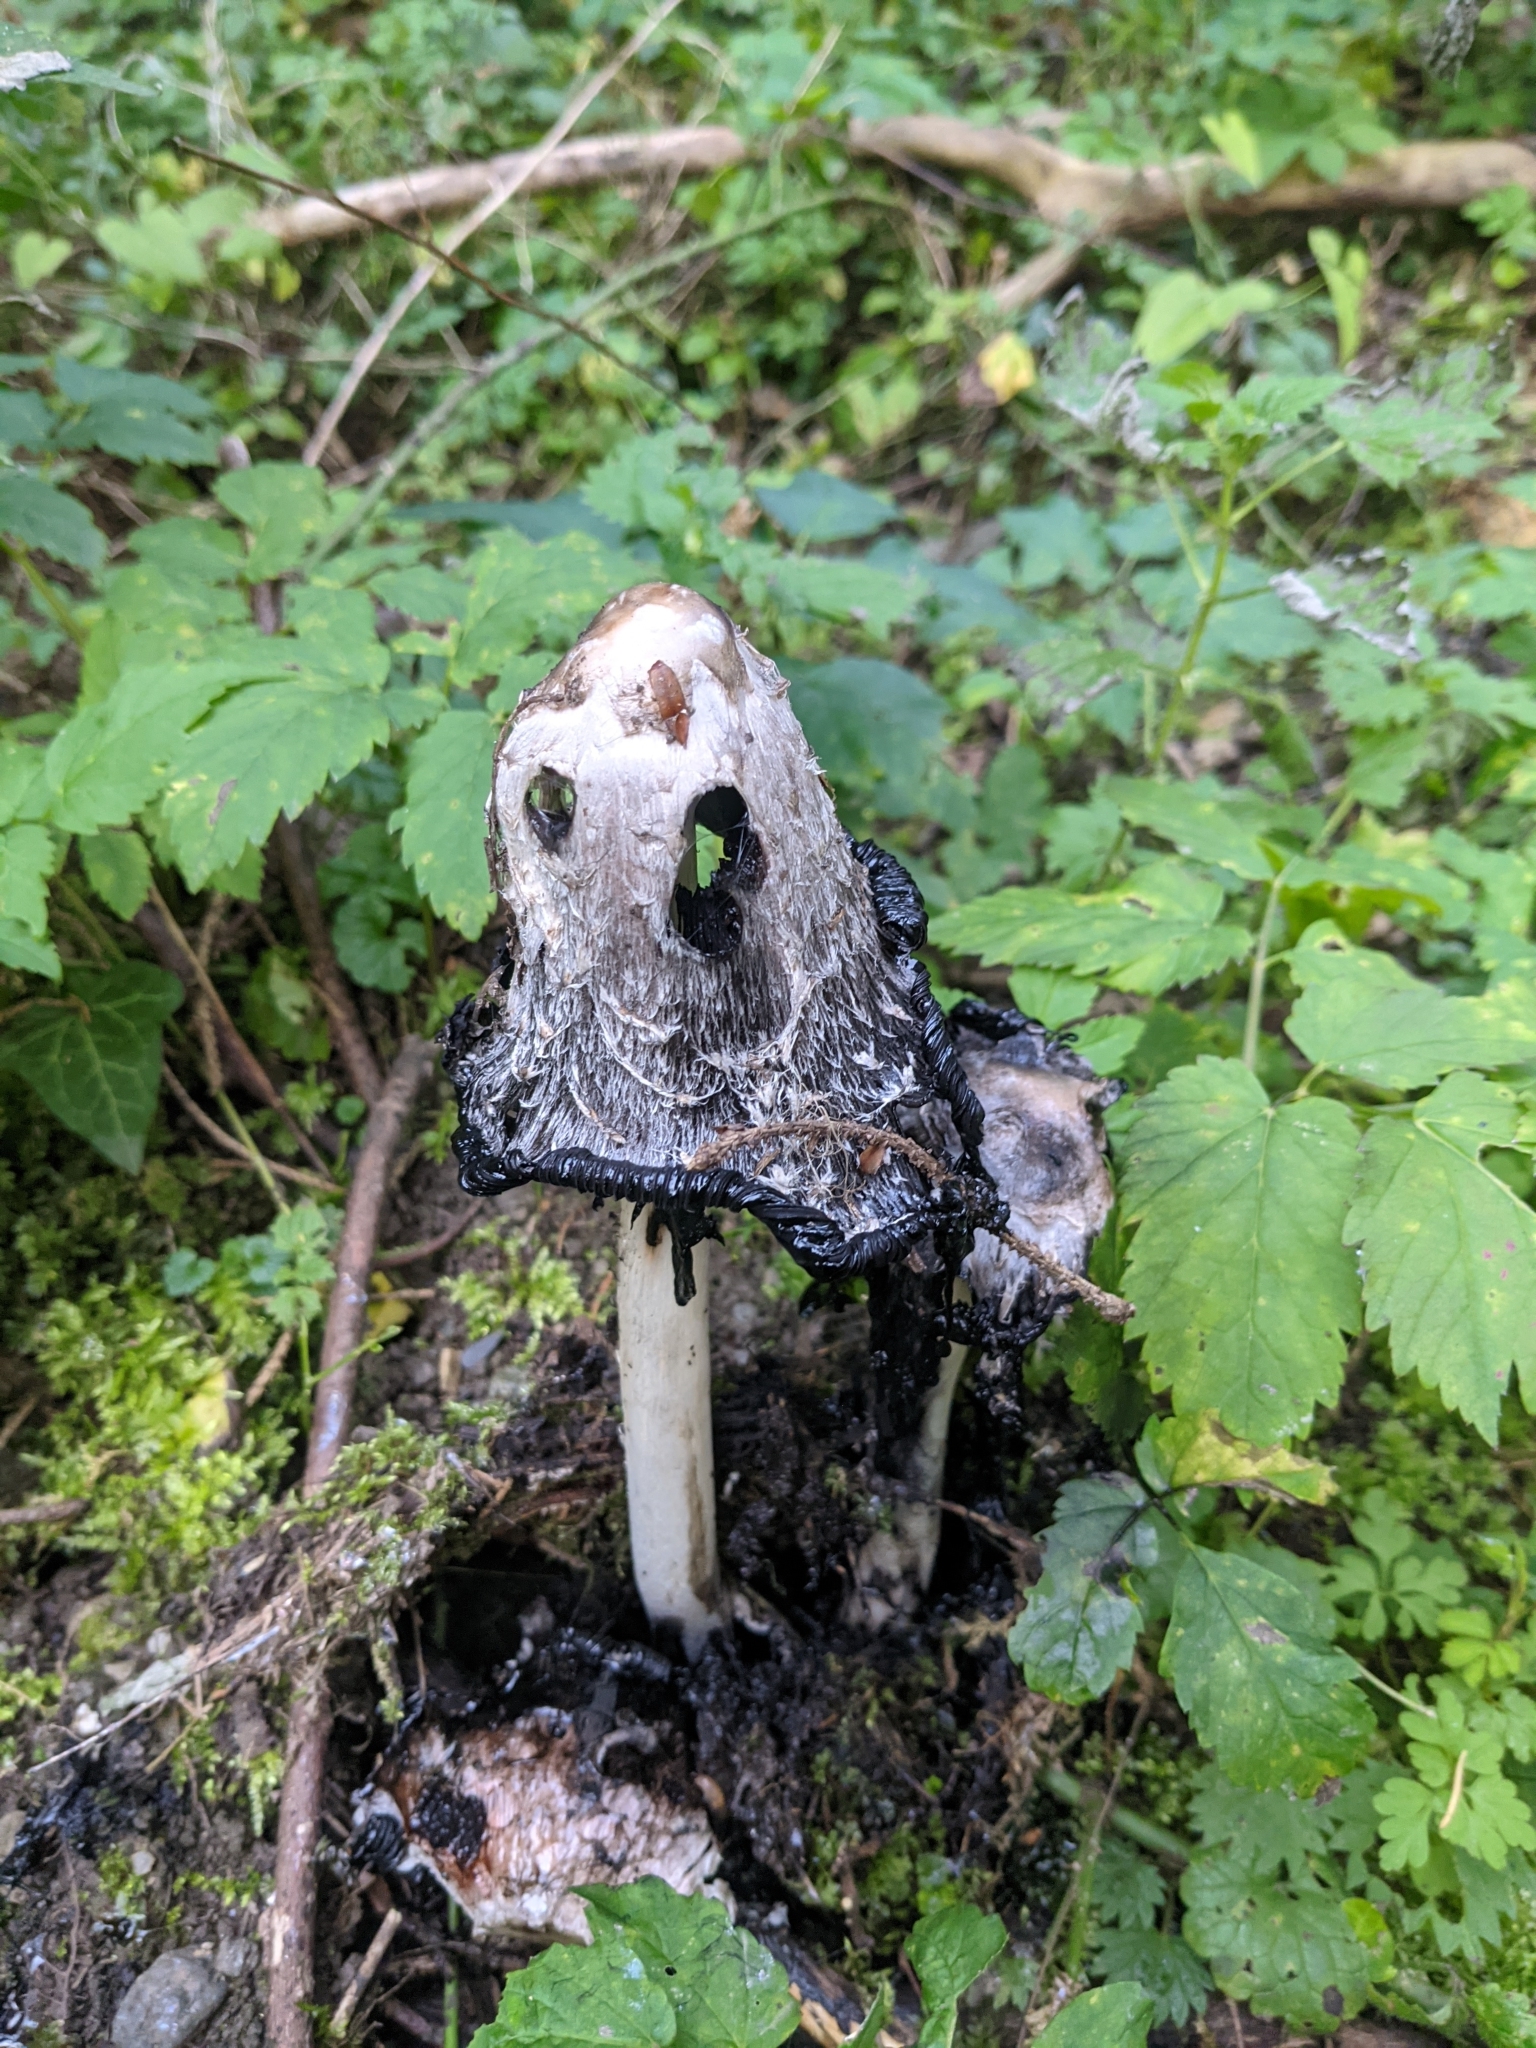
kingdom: Fungi
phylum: Basidiomycota
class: Agaricomycetes
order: Agaricales
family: Agaricaceae
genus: Coprinus
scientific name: Coprinus comatus
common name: Lawyer's wig
